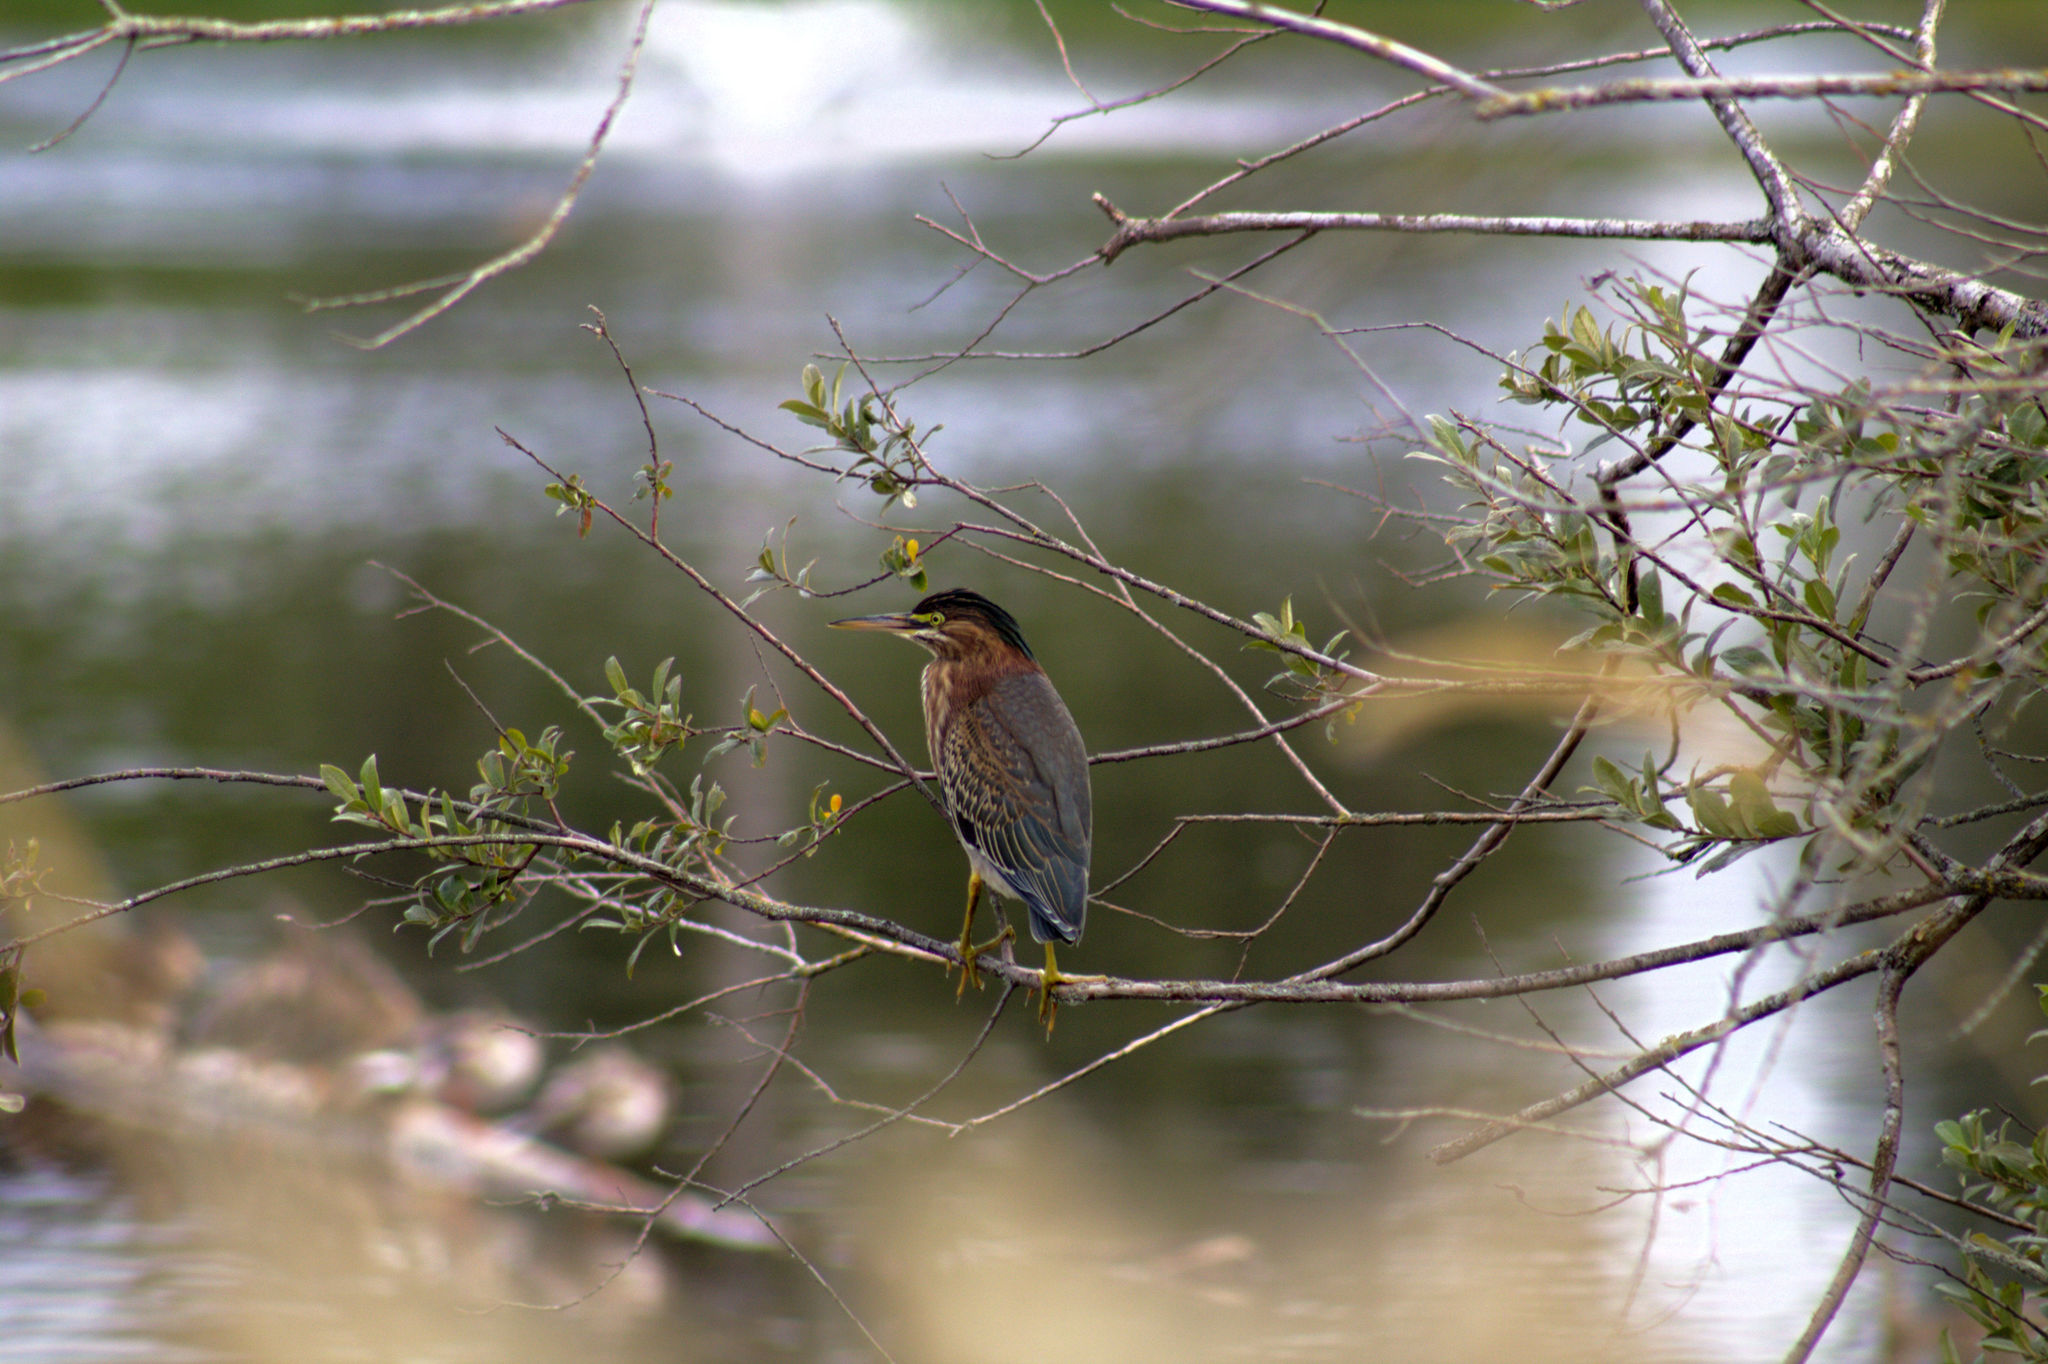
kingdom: Animalia
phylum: Chordata
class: Aves
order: Pelecaniformes
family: Ardeidae
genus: Butorides
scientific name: Butorides virescens
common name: Green heron
